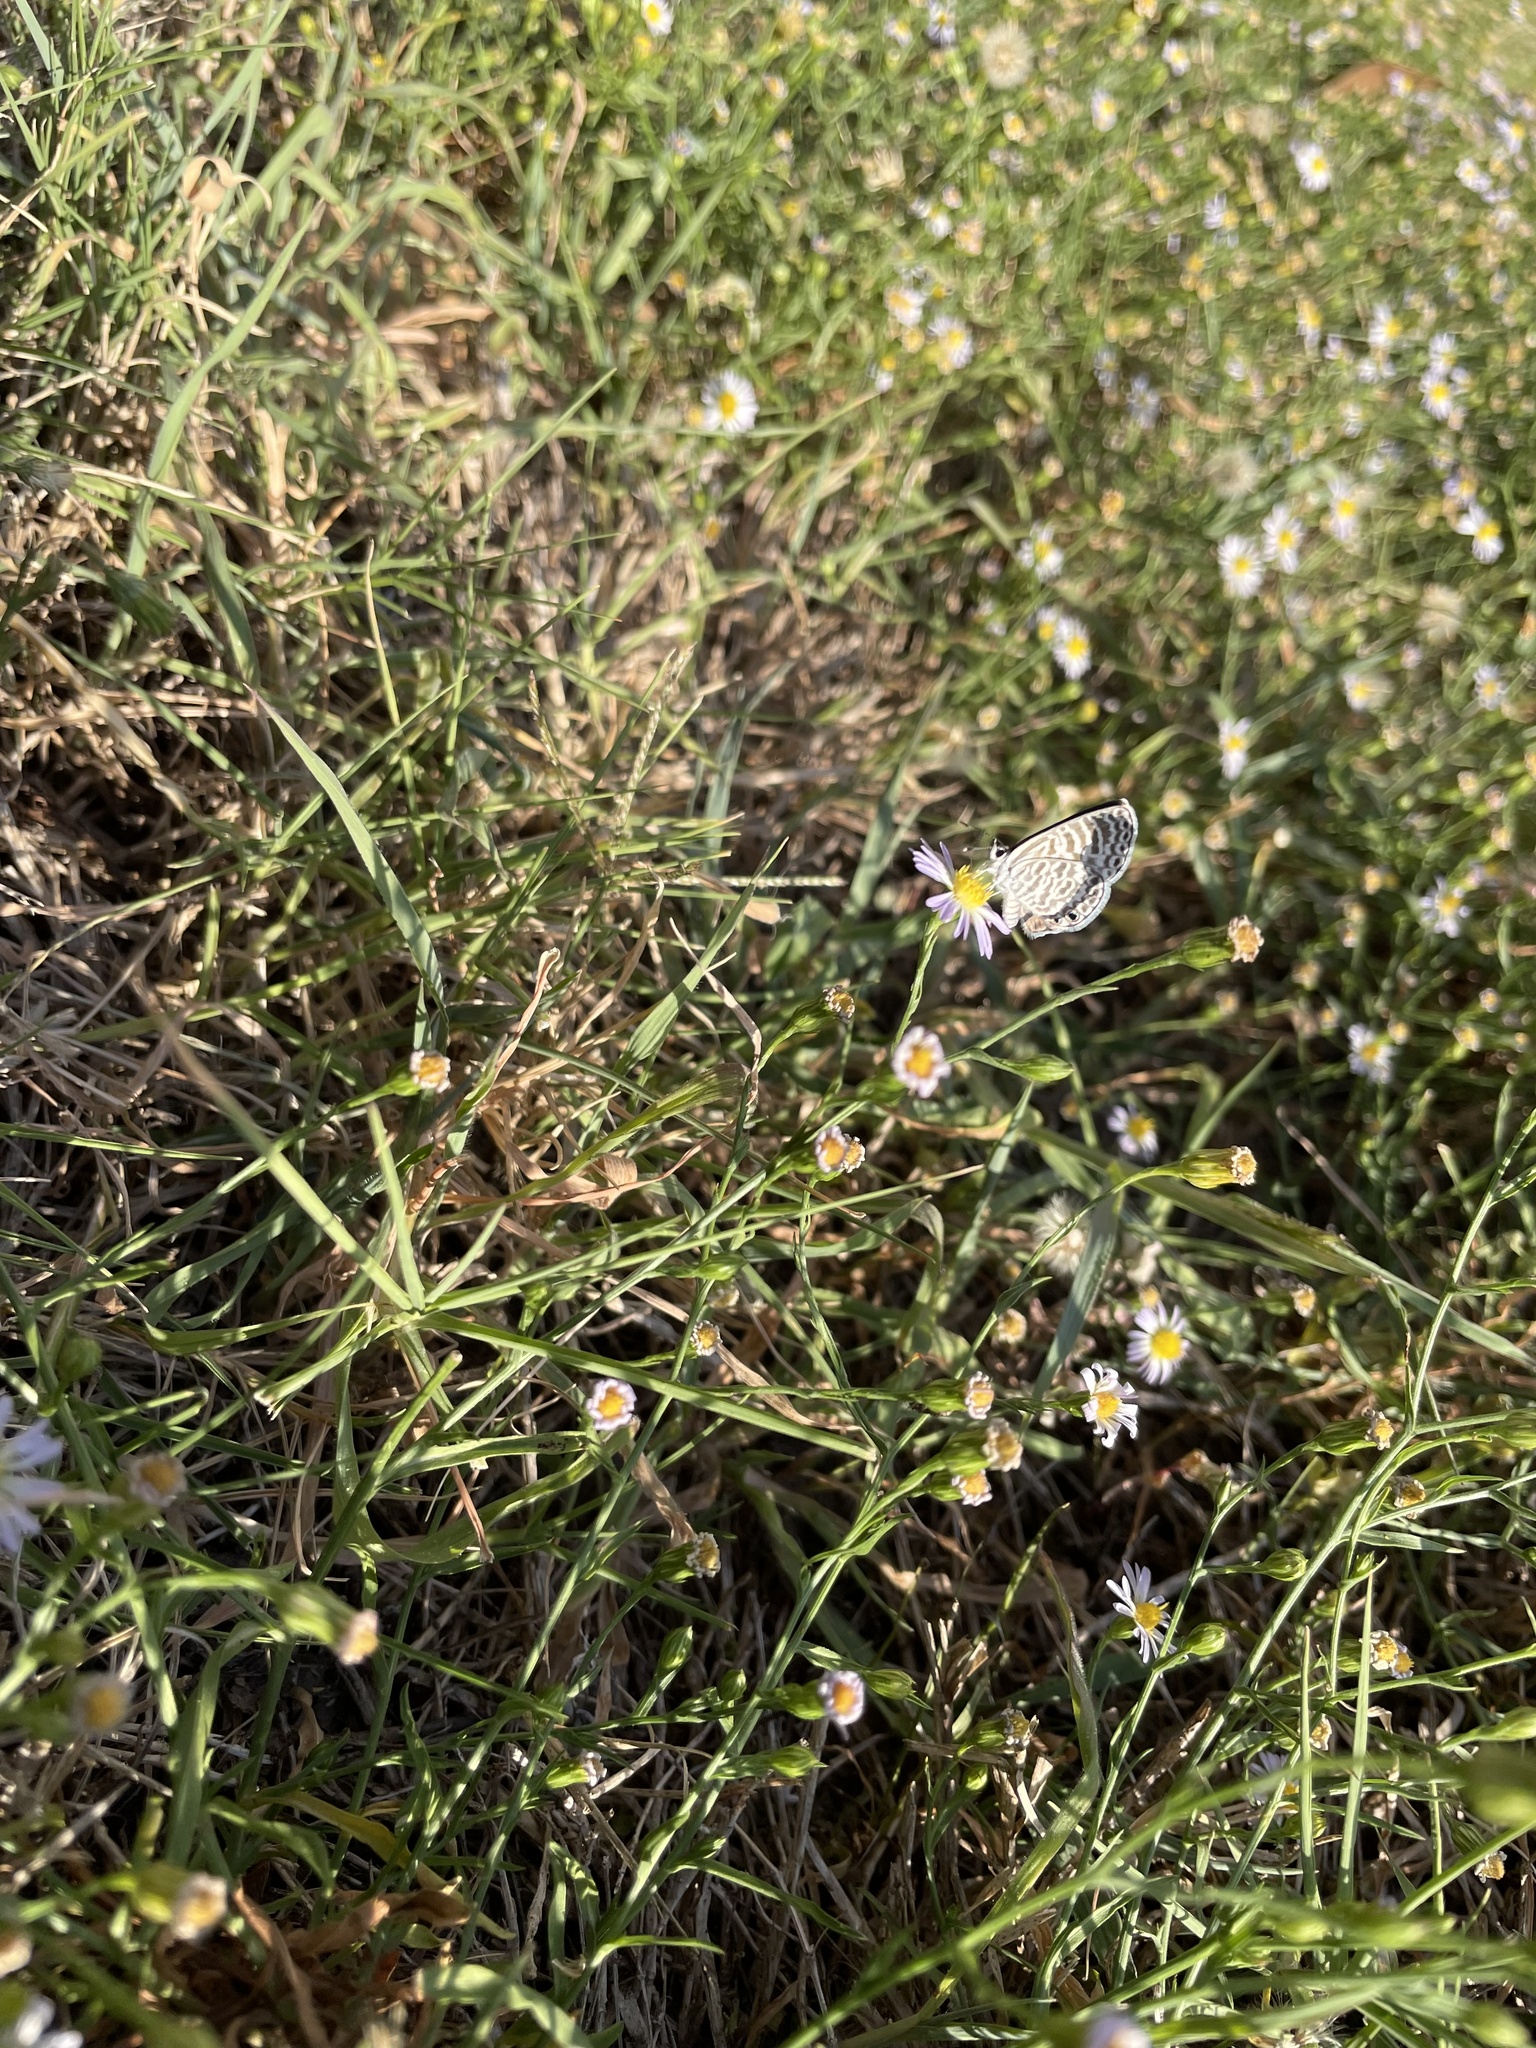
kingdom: Animalia
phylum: Arthropoda
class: Insecta
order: Lepidoptera
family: Lycaenidae
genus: Leptotes
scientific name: Leptotes marina
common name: Marine blue
